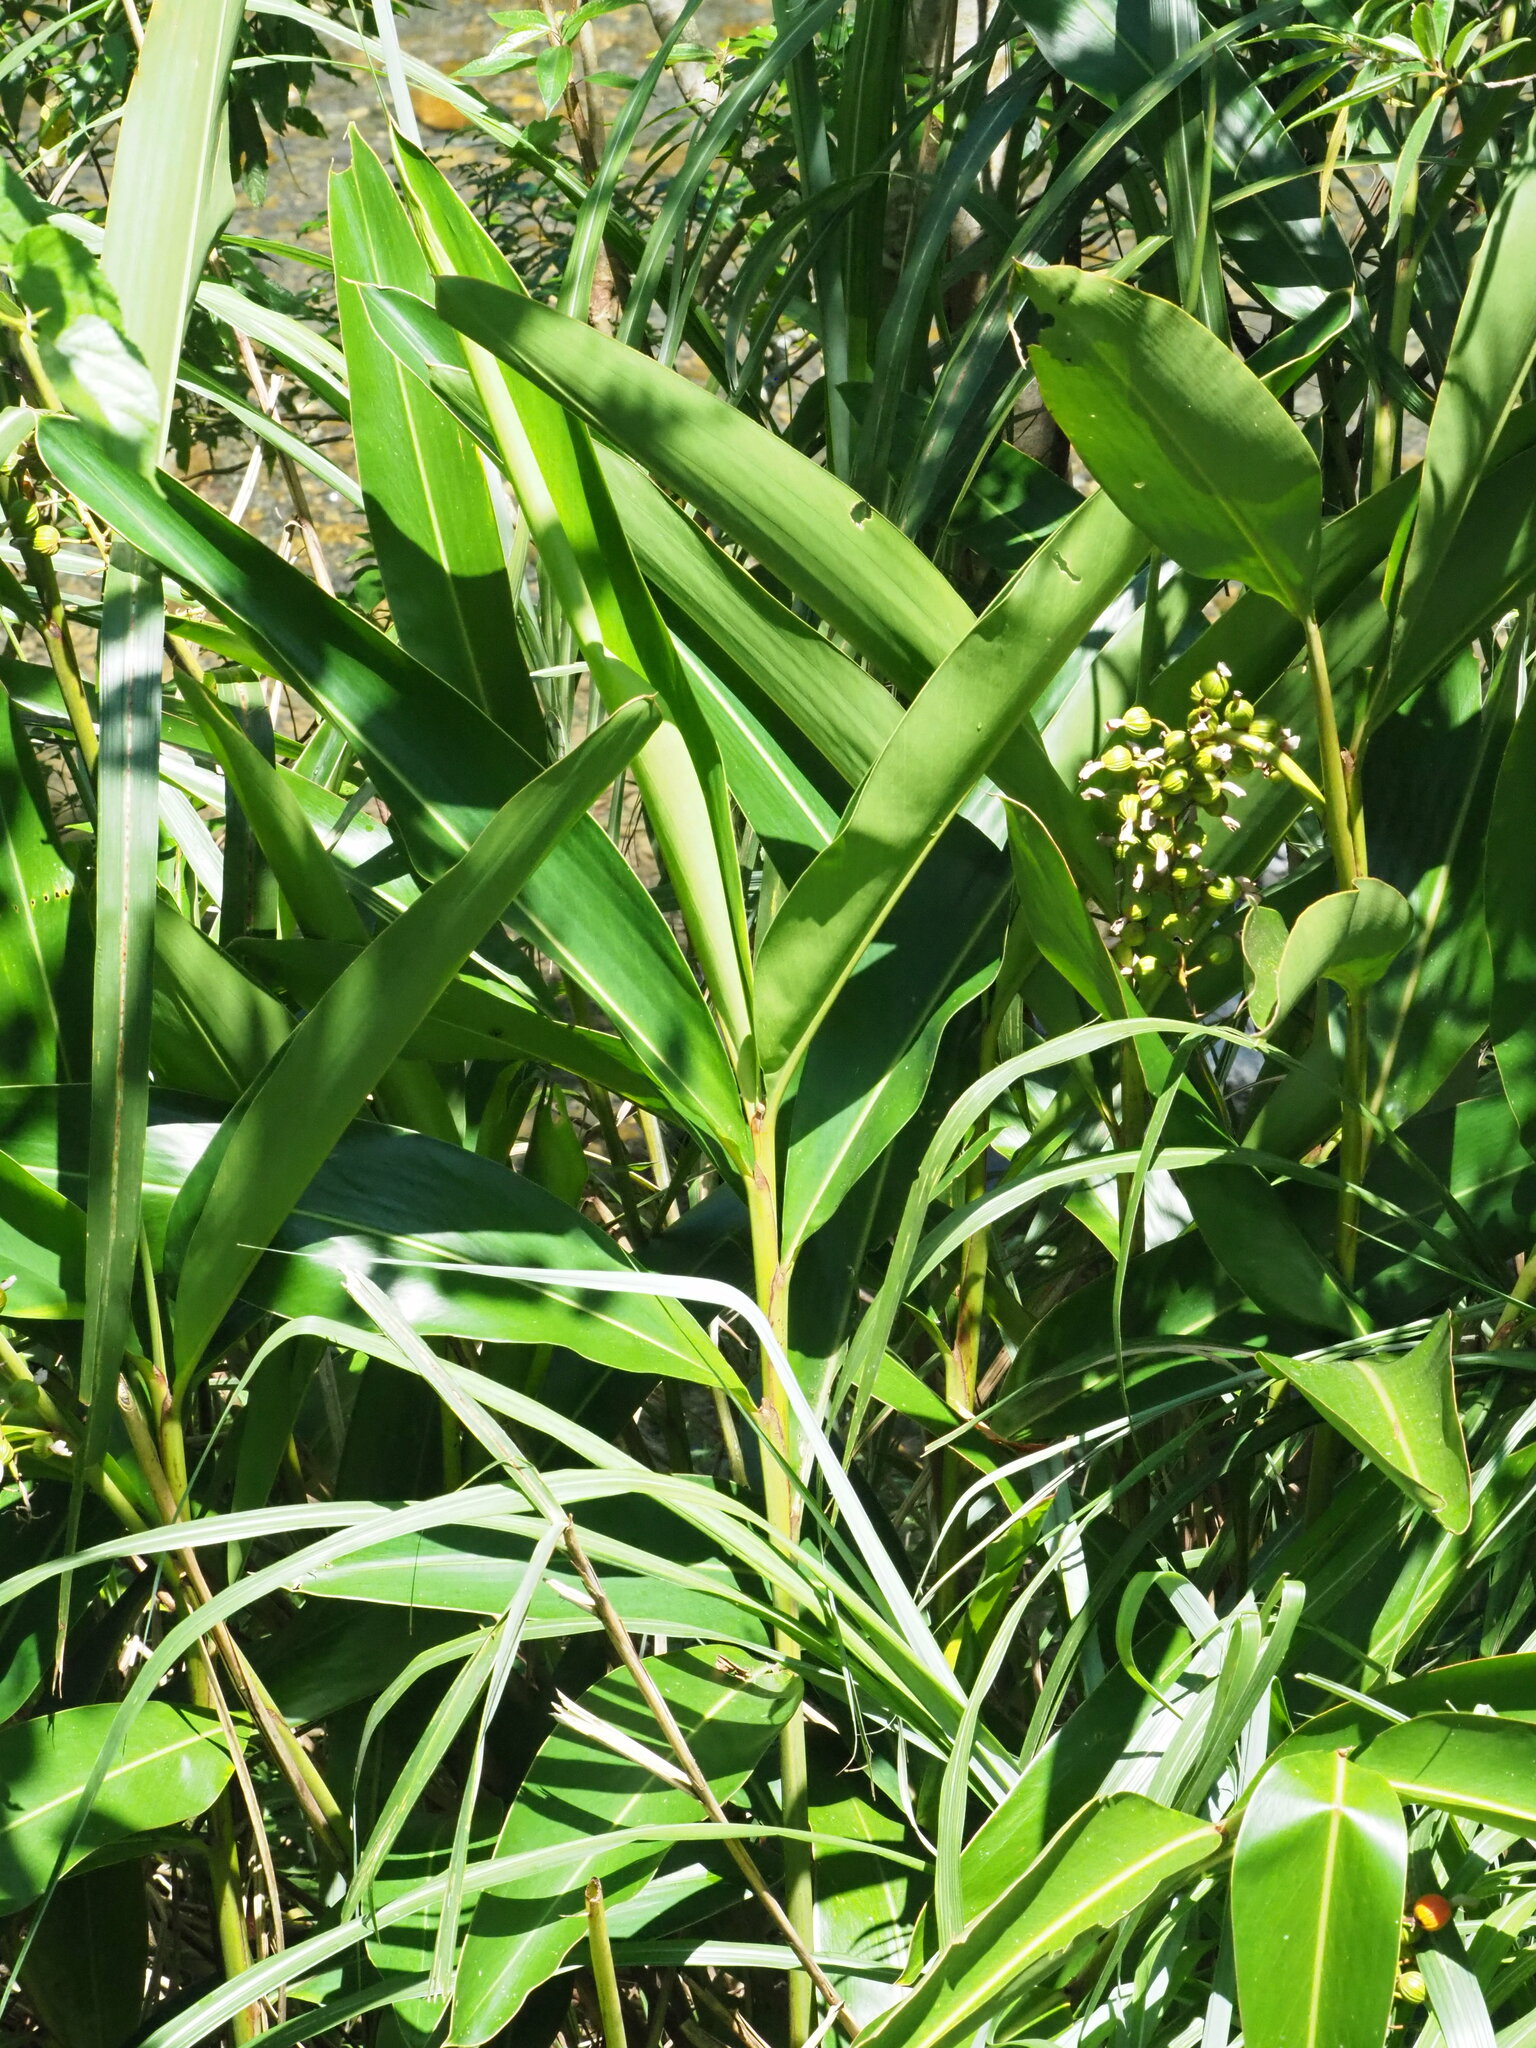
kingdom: Plantae
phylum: Tracheophyta
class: Liliopsida
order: Zingiberales
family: Zingiberaceae
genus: Alpinia
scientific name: Alpinia zerumbet
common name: Shellplant
